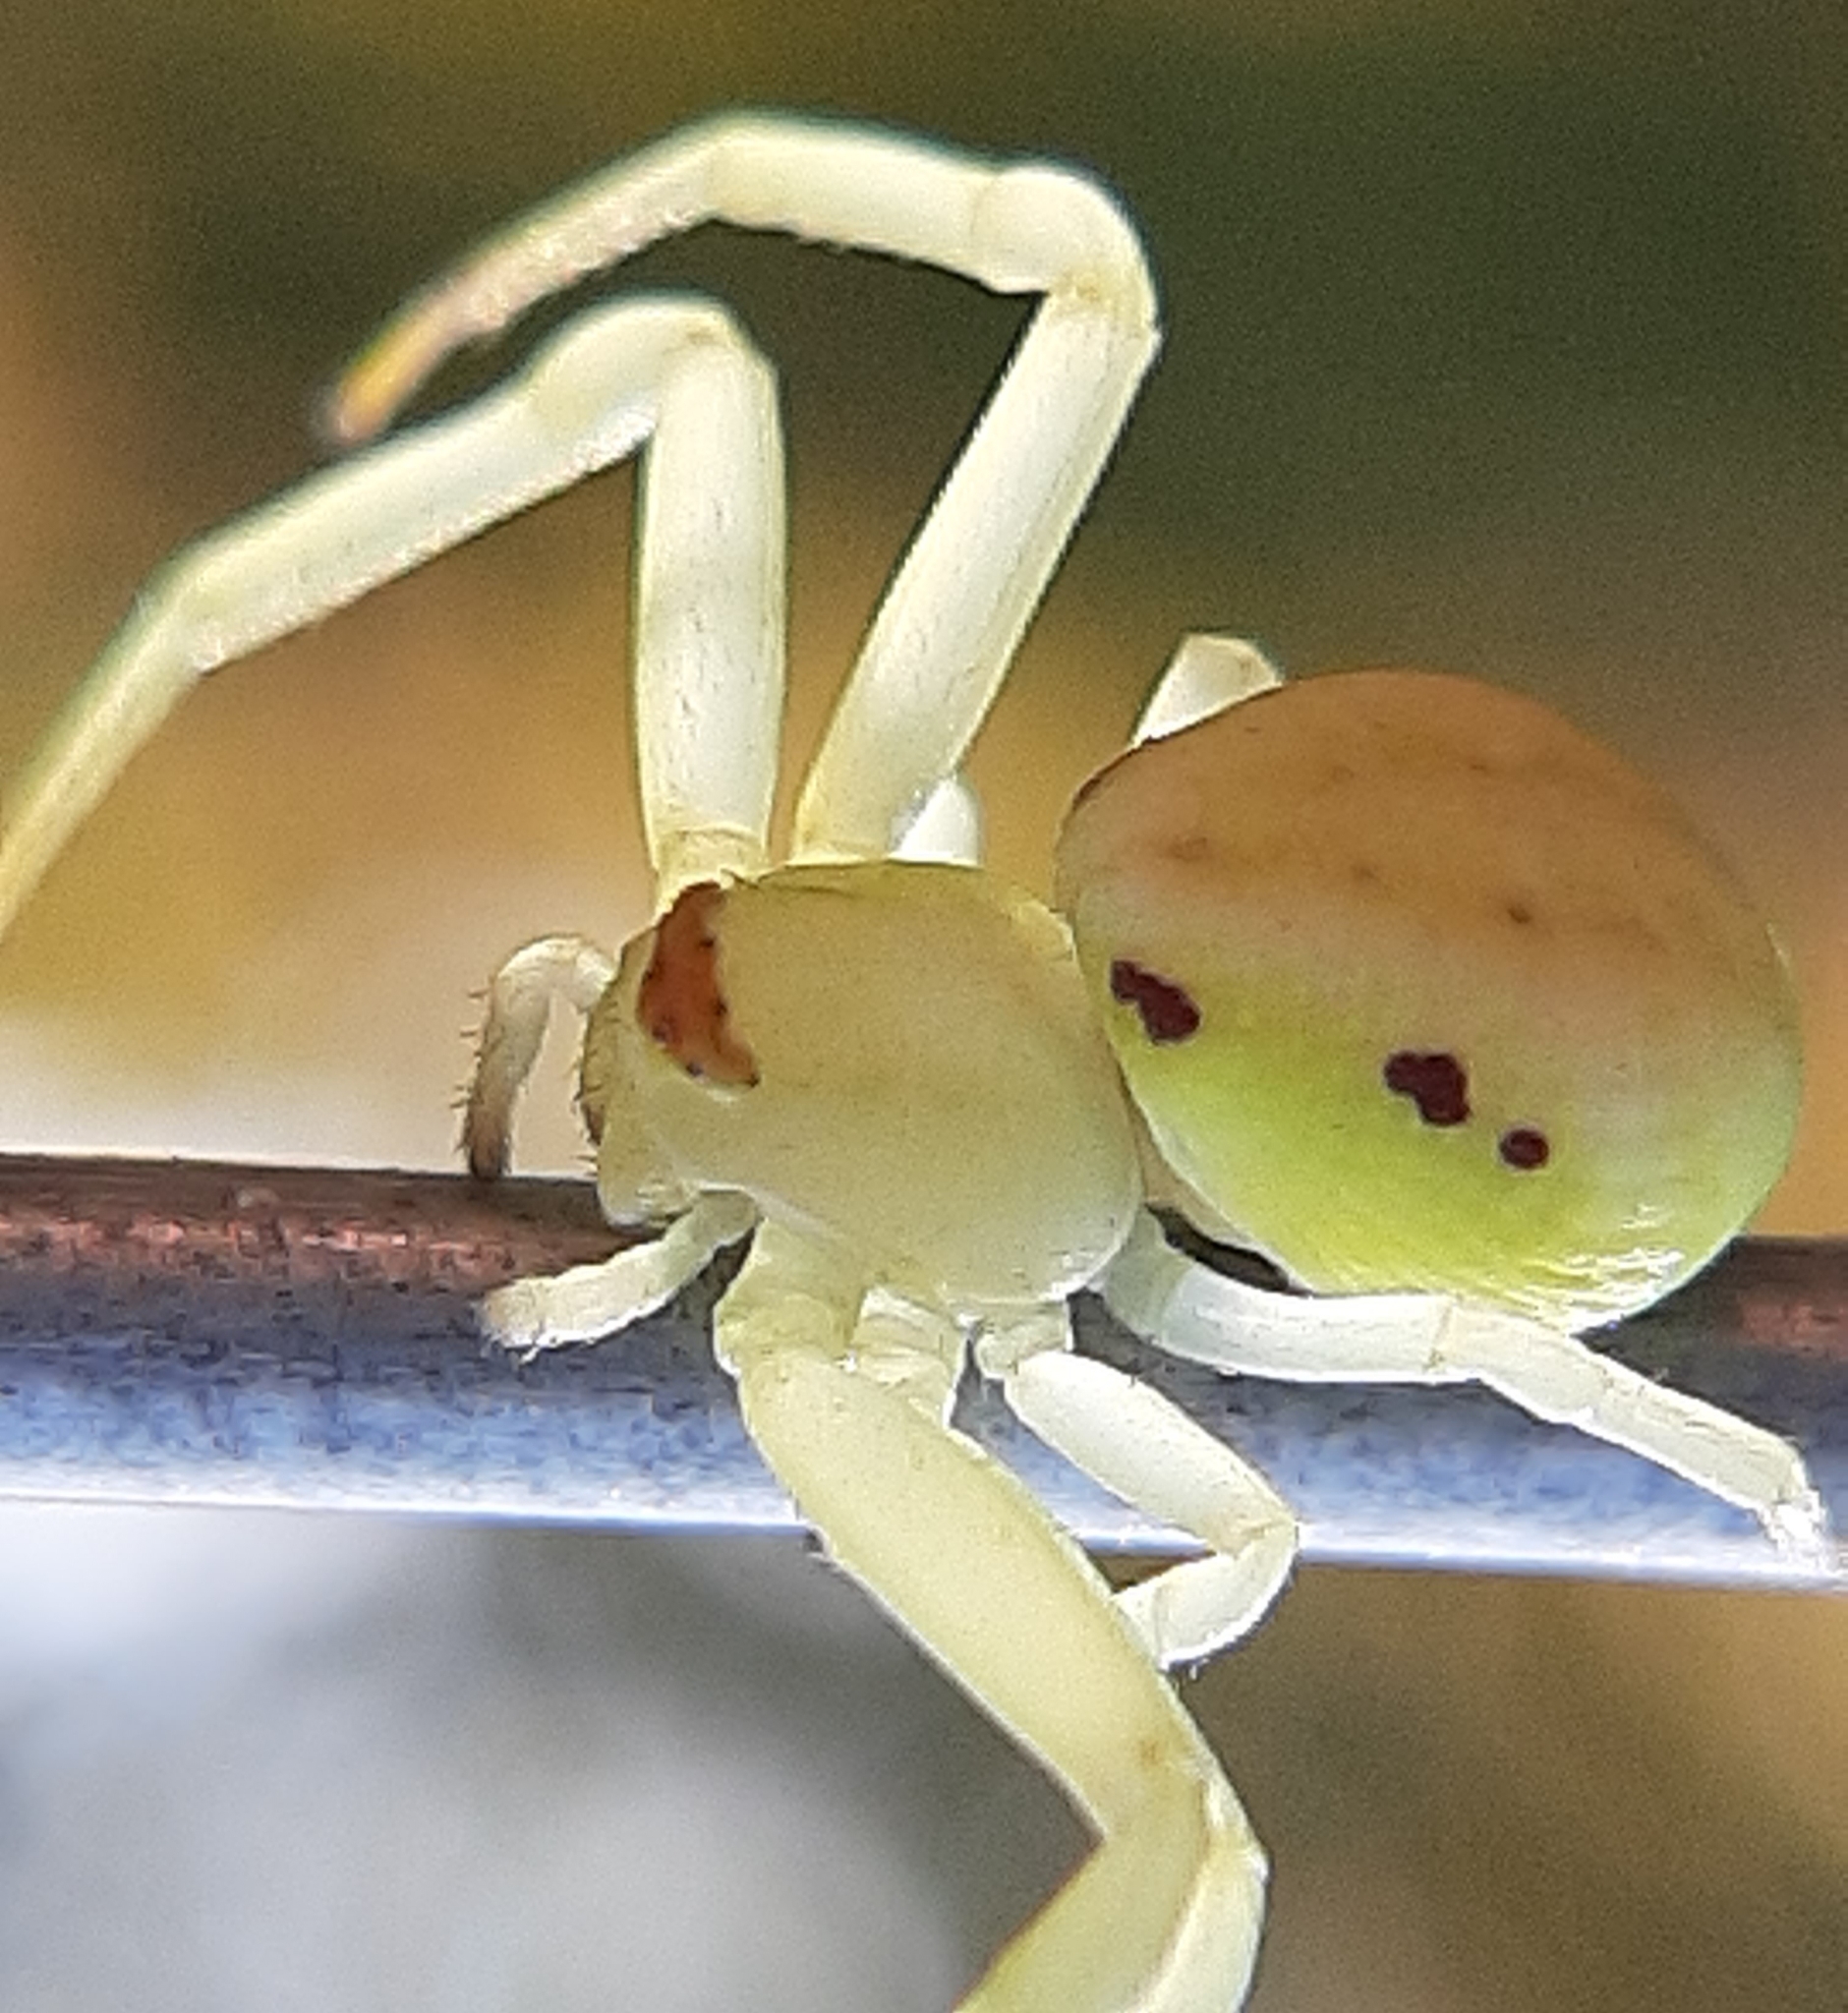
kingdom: Animalia
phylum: Arthropoda
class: Arachnida
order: Araneae
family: Thomisidae
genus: Misumena
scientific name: Misumena vatia
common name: Goldenrod crab spider
